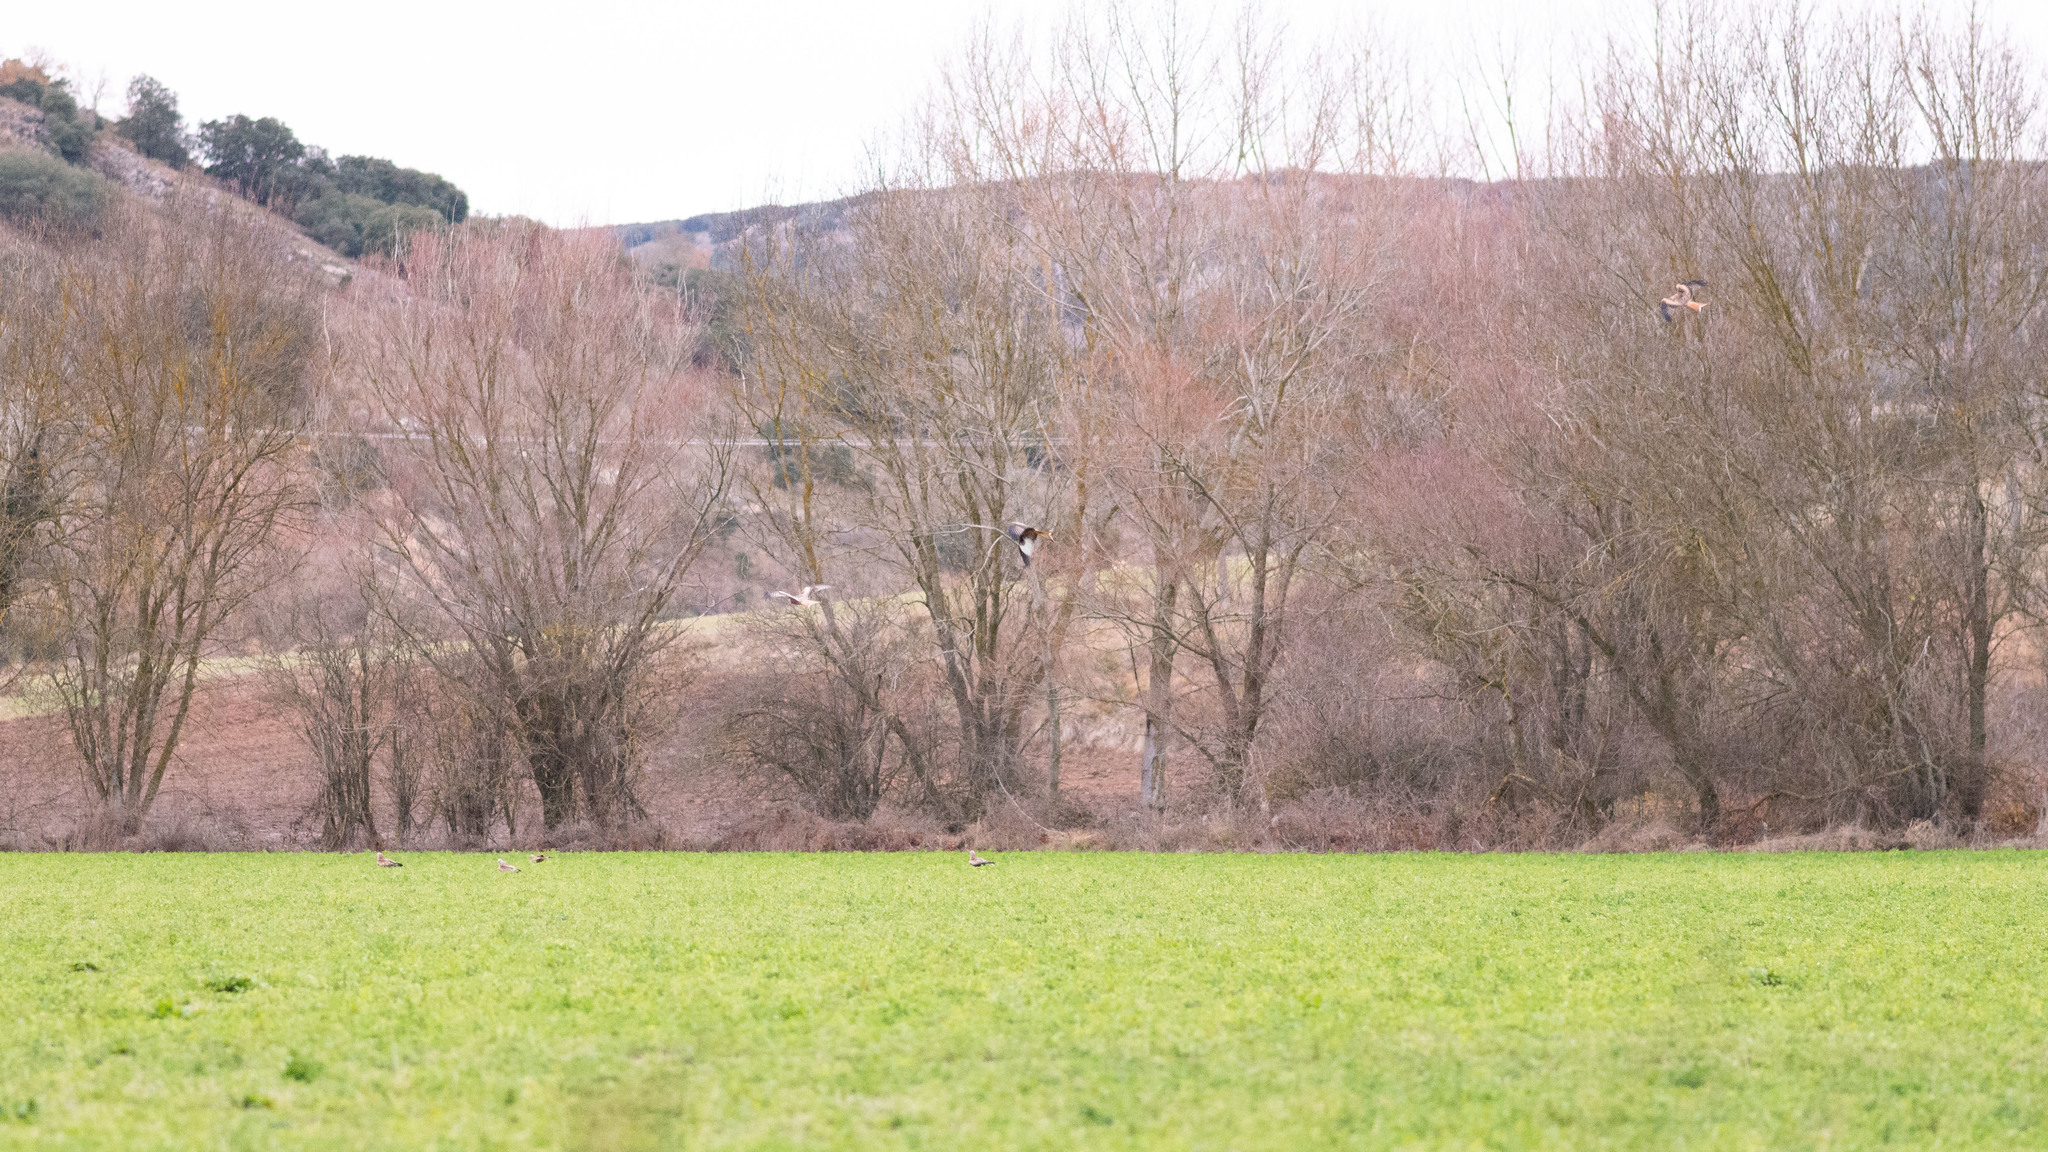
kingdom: Animalia
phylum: Chordata
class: Aves
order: Accipitriformes
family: Accipitridae
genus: Milvus
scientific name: Milvus milvus
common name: Red kite
